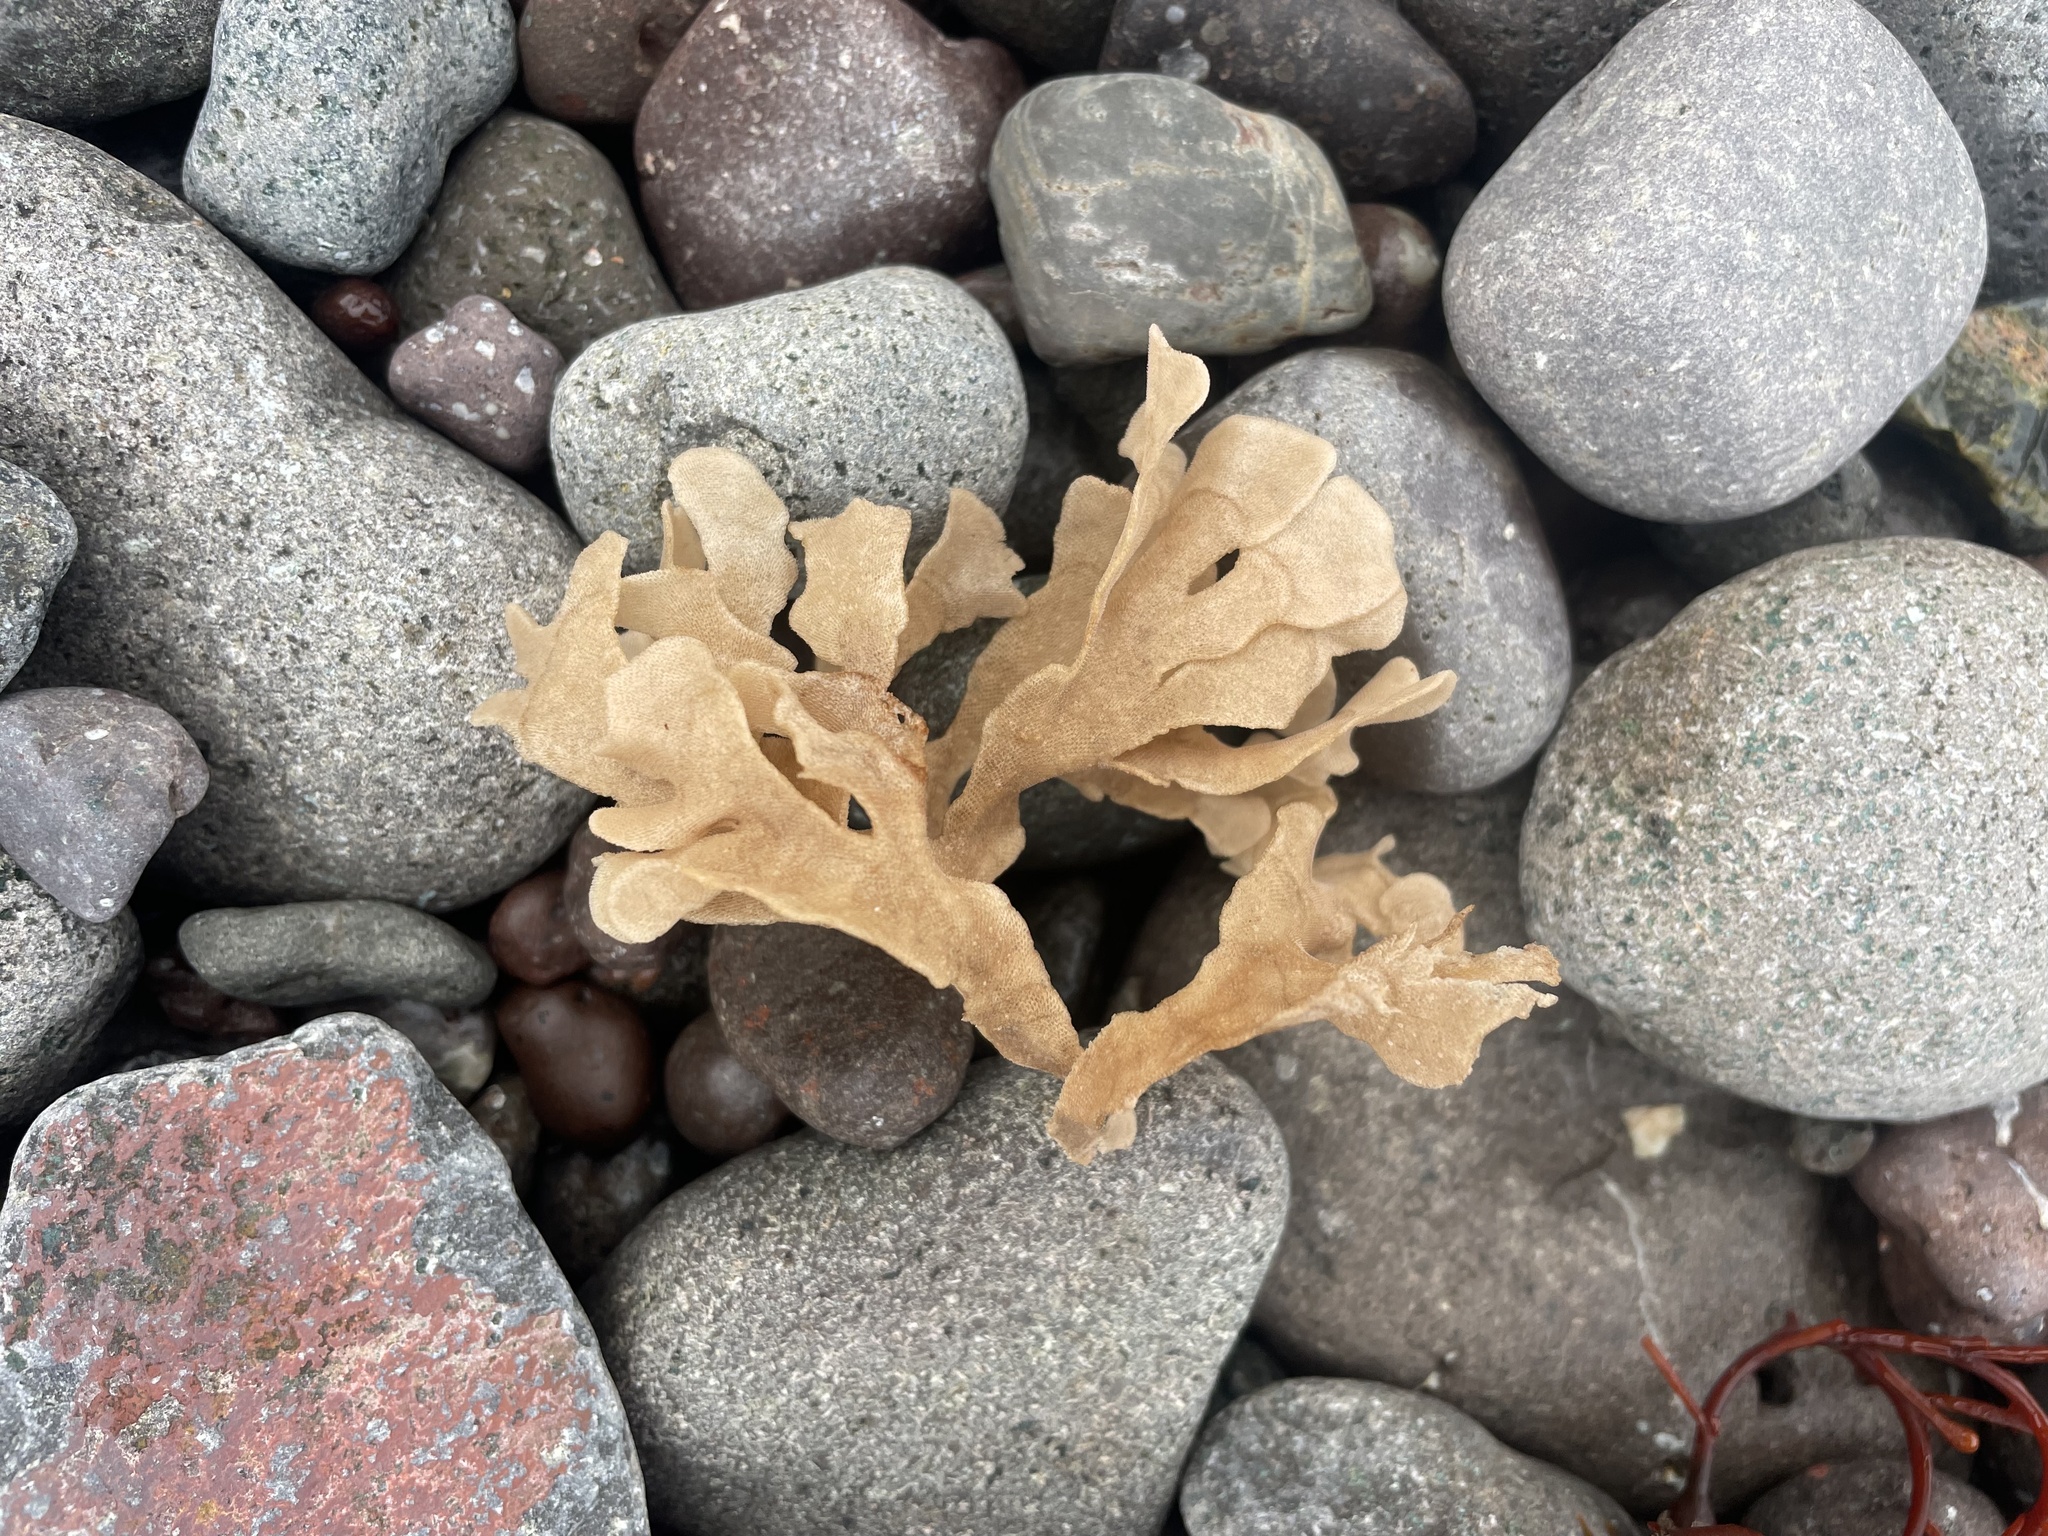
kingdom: Animalia
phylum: Bryozoa
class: Gymnolaemata
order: Cheilostomatida
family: Flustridae
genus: Flustra
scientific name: Flustra foliacea
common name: Hornwrack
